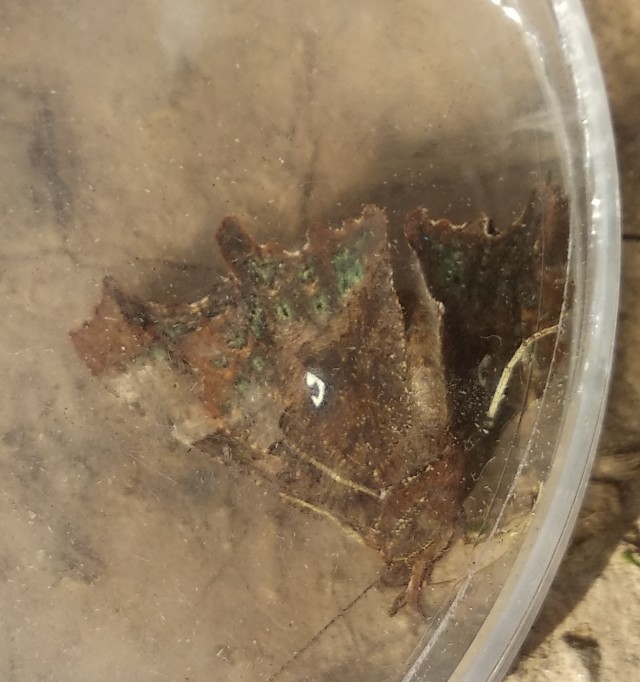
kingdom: Animalia
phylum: Arthropoda
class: Insecta
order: Lepidoptera
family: Nymphalidae
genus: Polygonia
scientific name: Polygonia c-album
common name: Comma
